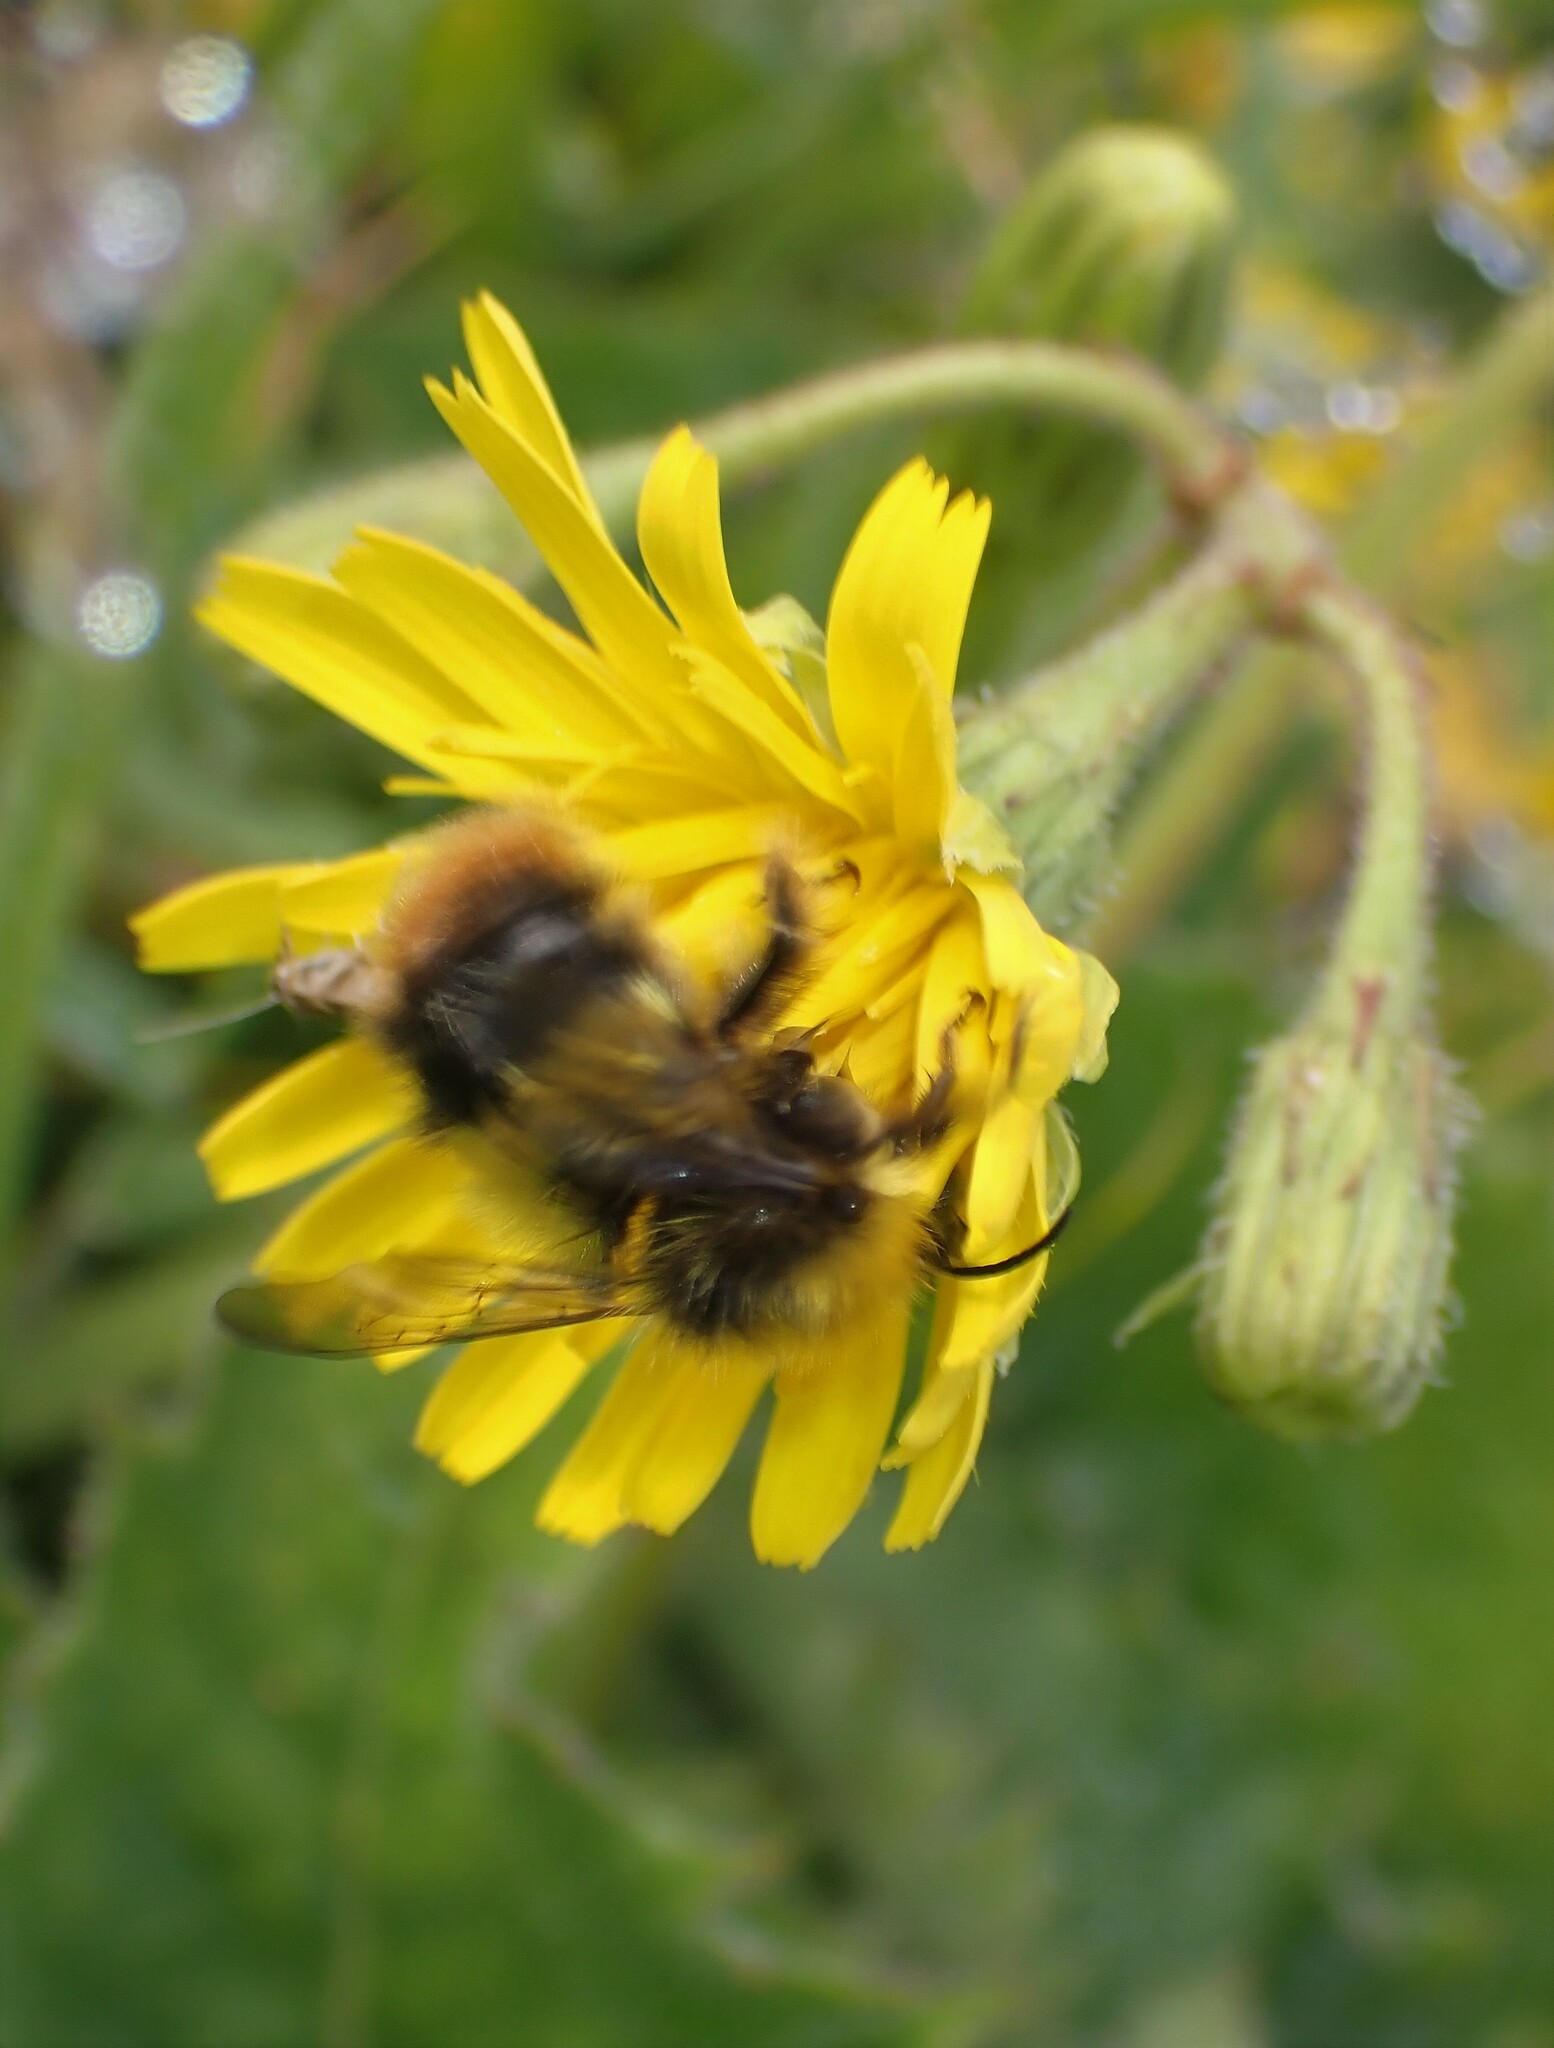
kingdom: Animalia
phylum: Arthropoda
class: Insecta
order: Hymenoptera
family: Apidae
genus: Bombus
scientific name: Bombus pratorum
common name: Early humble-bee
